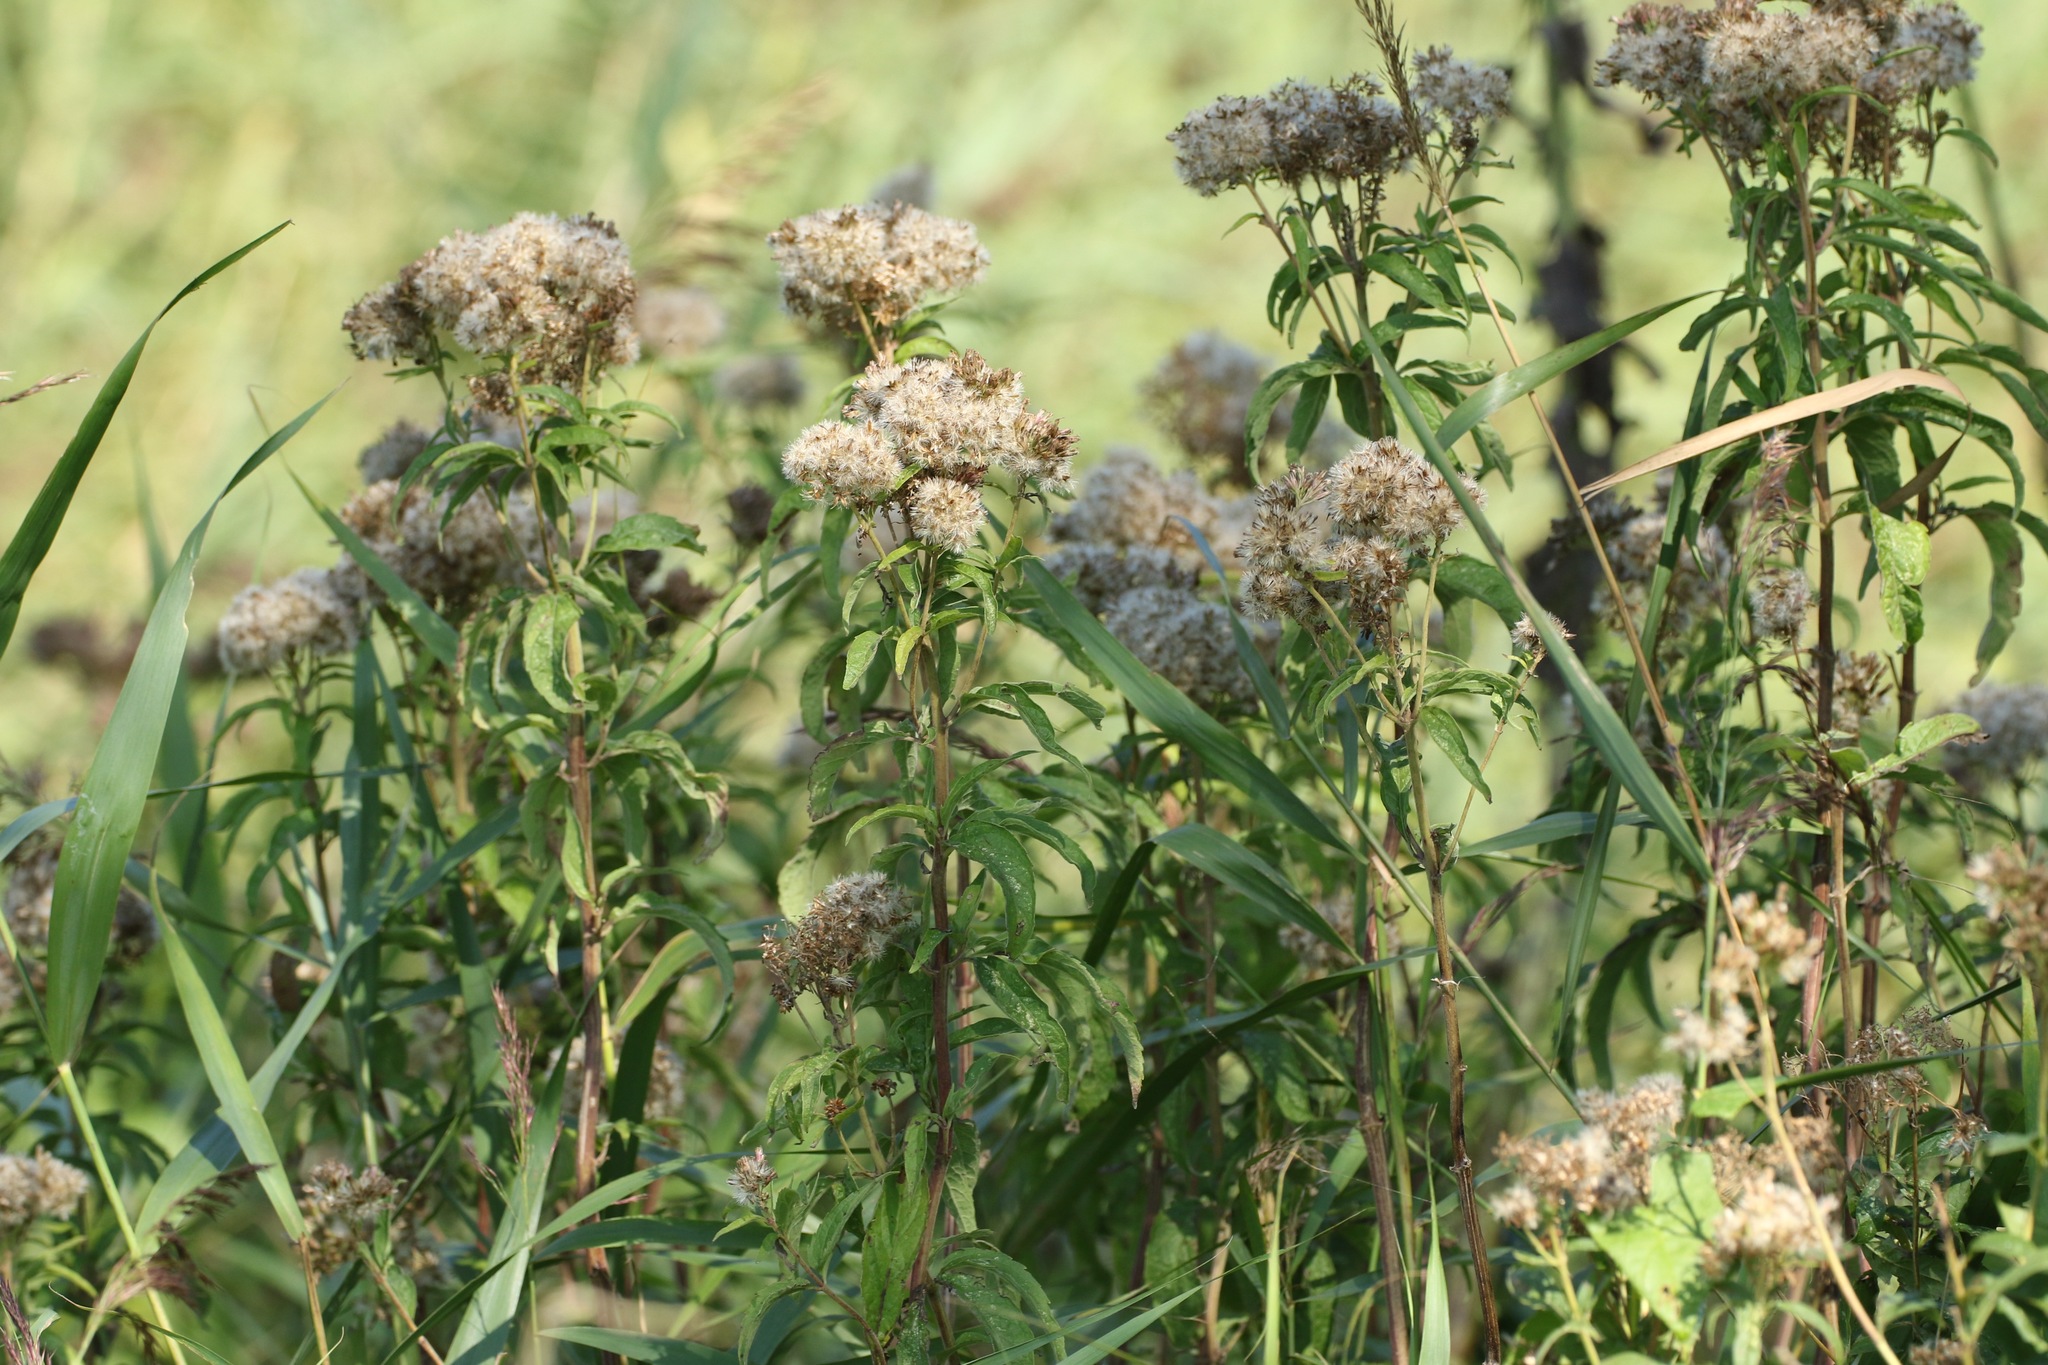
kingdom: Plantae
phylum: Tracheophyta
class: Magnoliopsida
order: Asterales
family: Asteraceae
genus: Eupatorium
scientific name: Eupatorium cannabinum
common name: Hemp-agrimony
